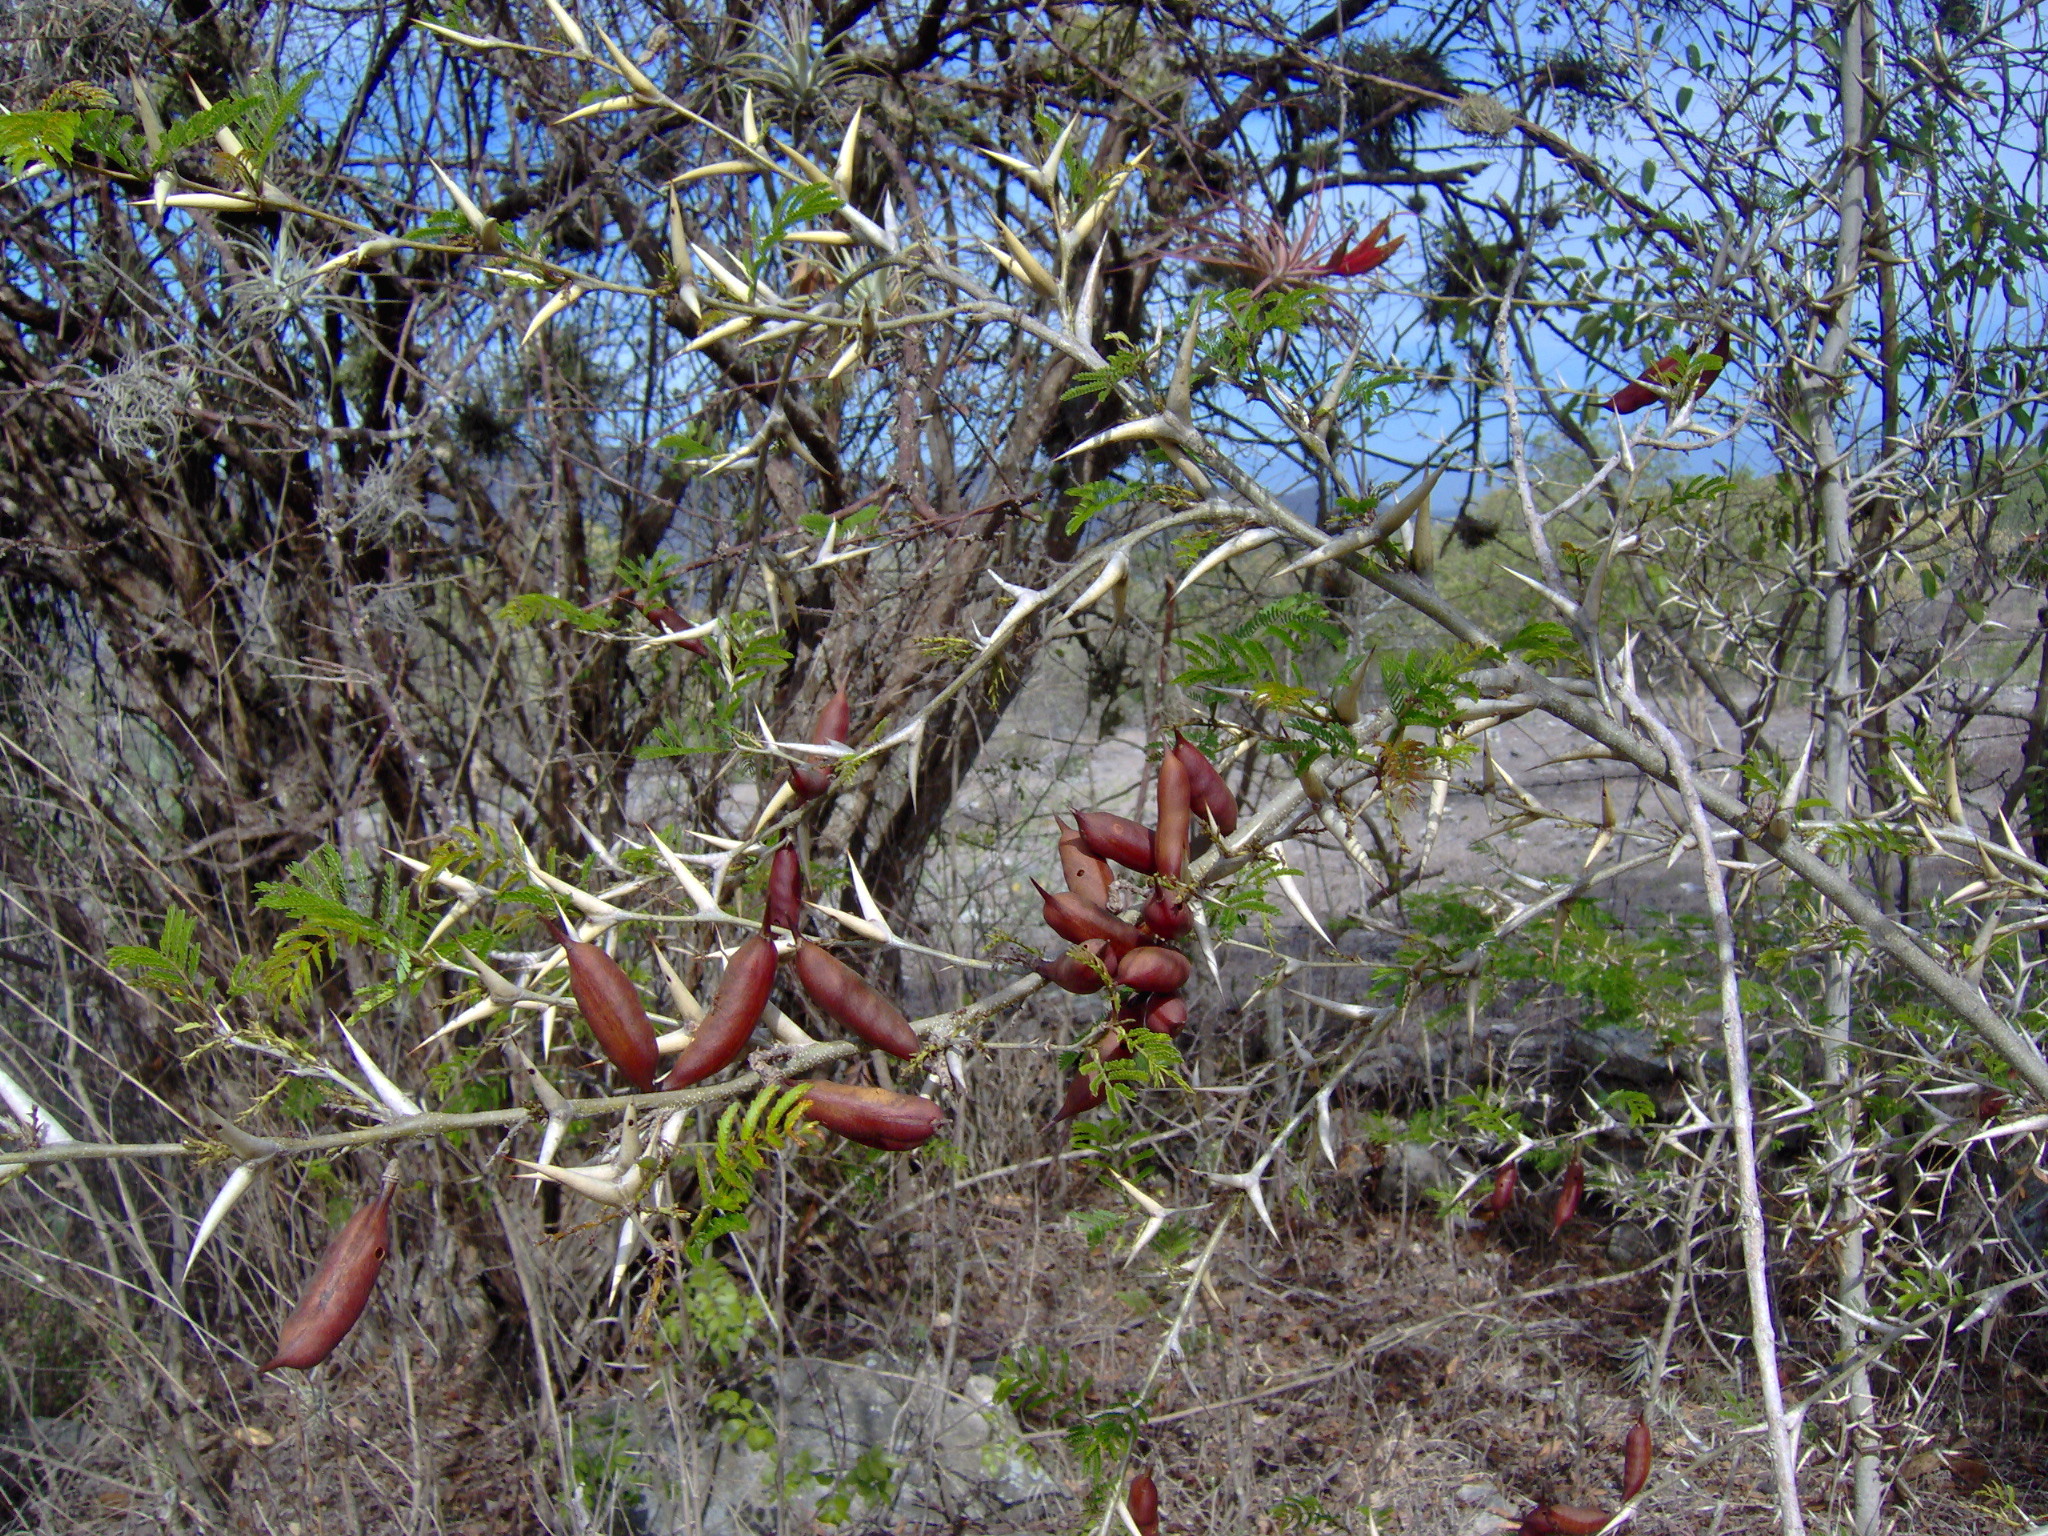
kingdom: Plantae
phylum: Tracheophyta
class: Magnoliopsida
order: Fabales
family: Fabaceae
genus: Vachellia
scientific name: Vachellia cornigera
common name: Bullhorn wattle
